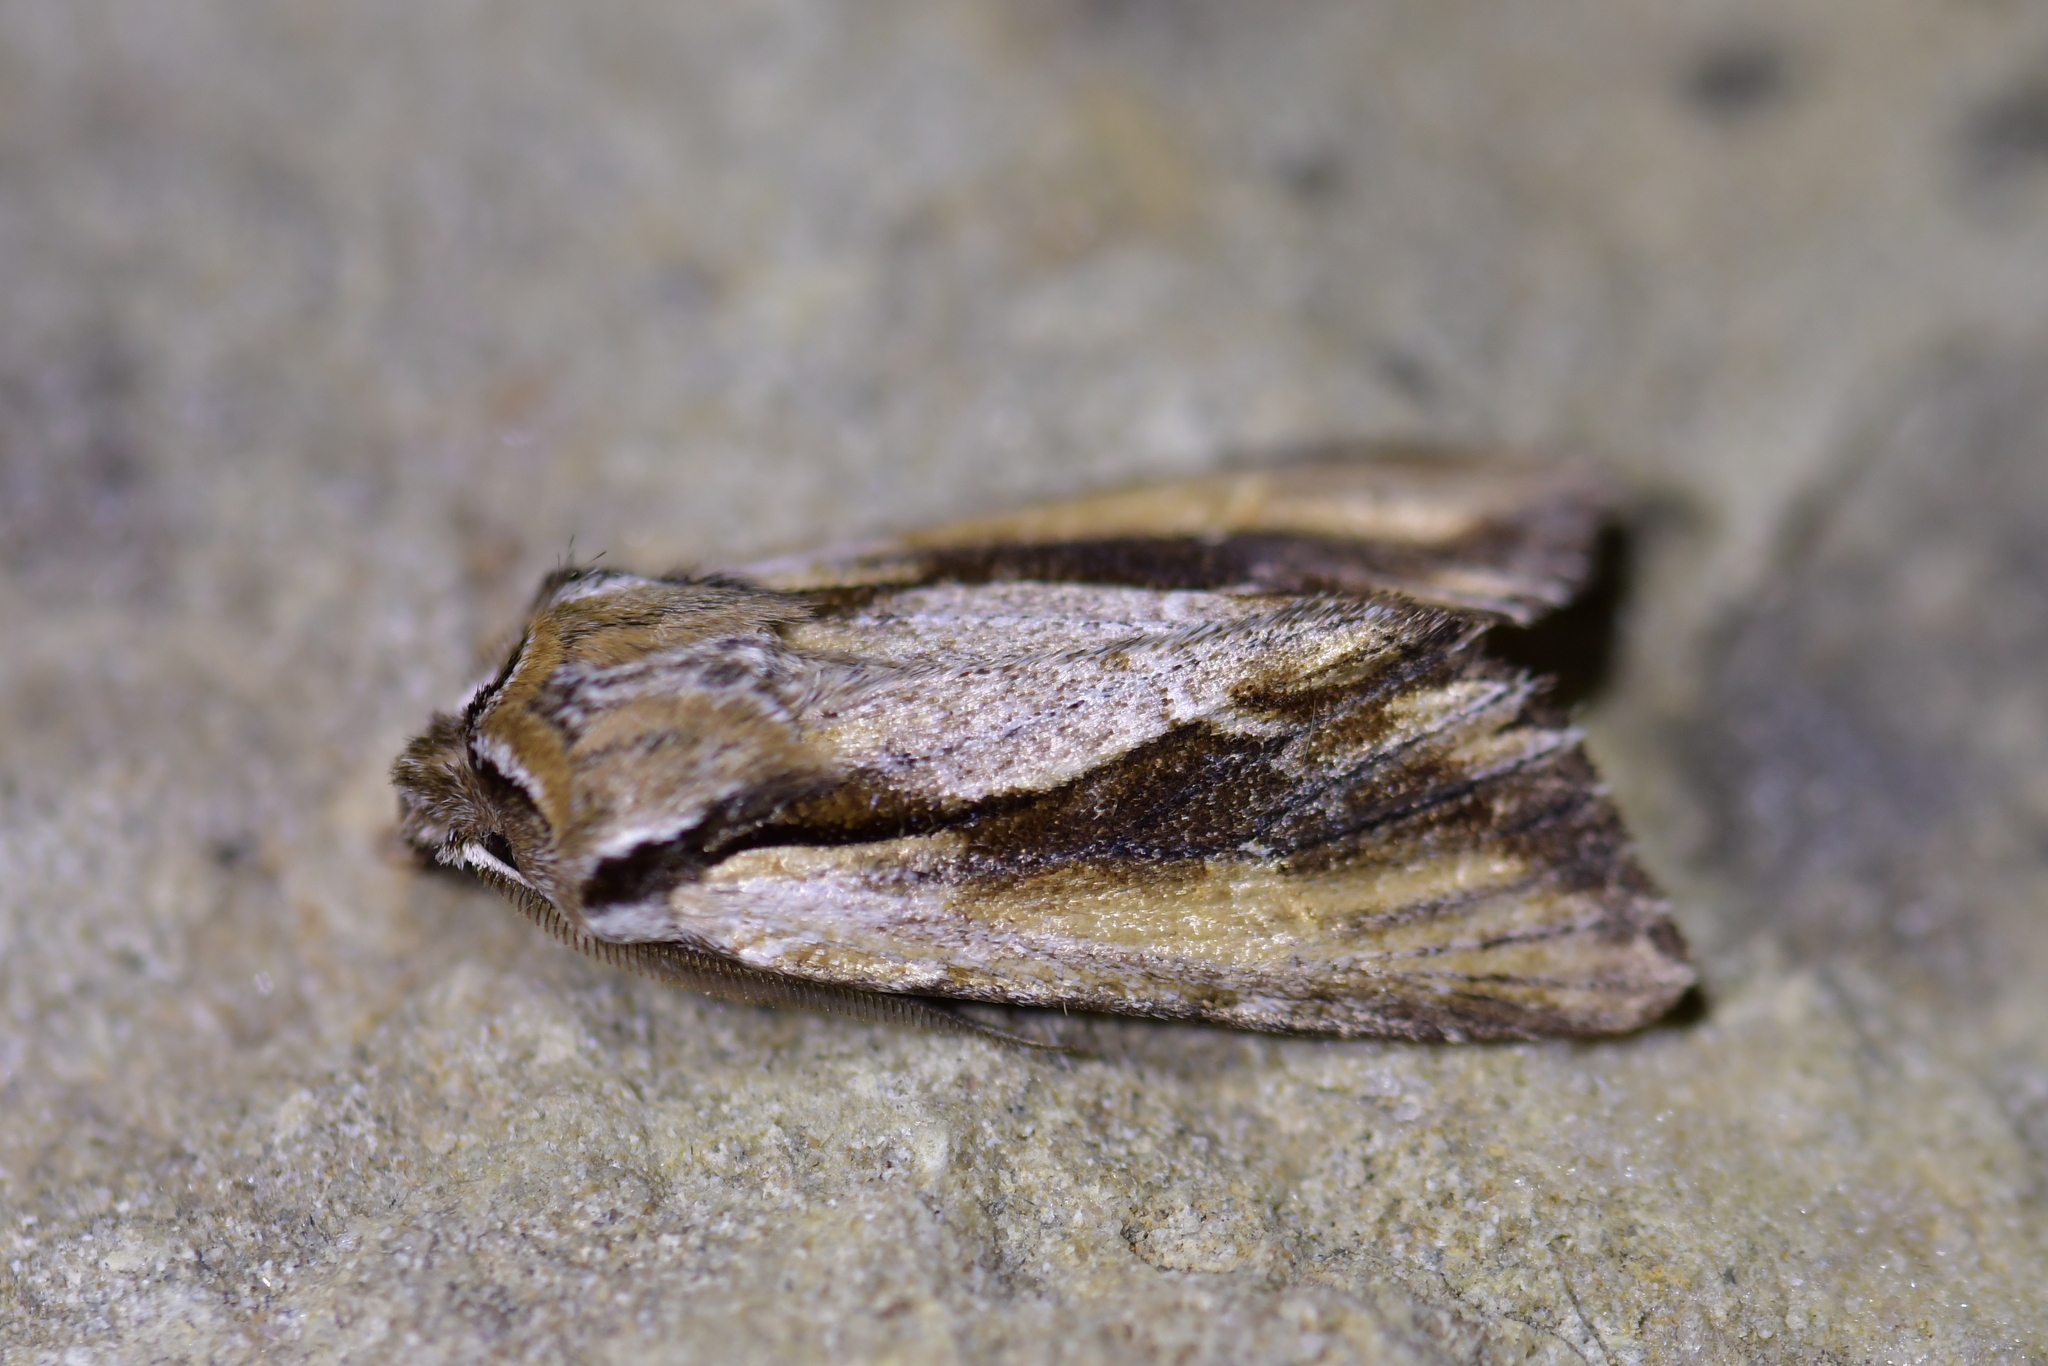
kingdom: Animalia
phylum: Arthropoda
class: Insecta
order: Lepidoptera
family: Noctuidae
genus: Ichneutica
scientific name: Ichneutica
